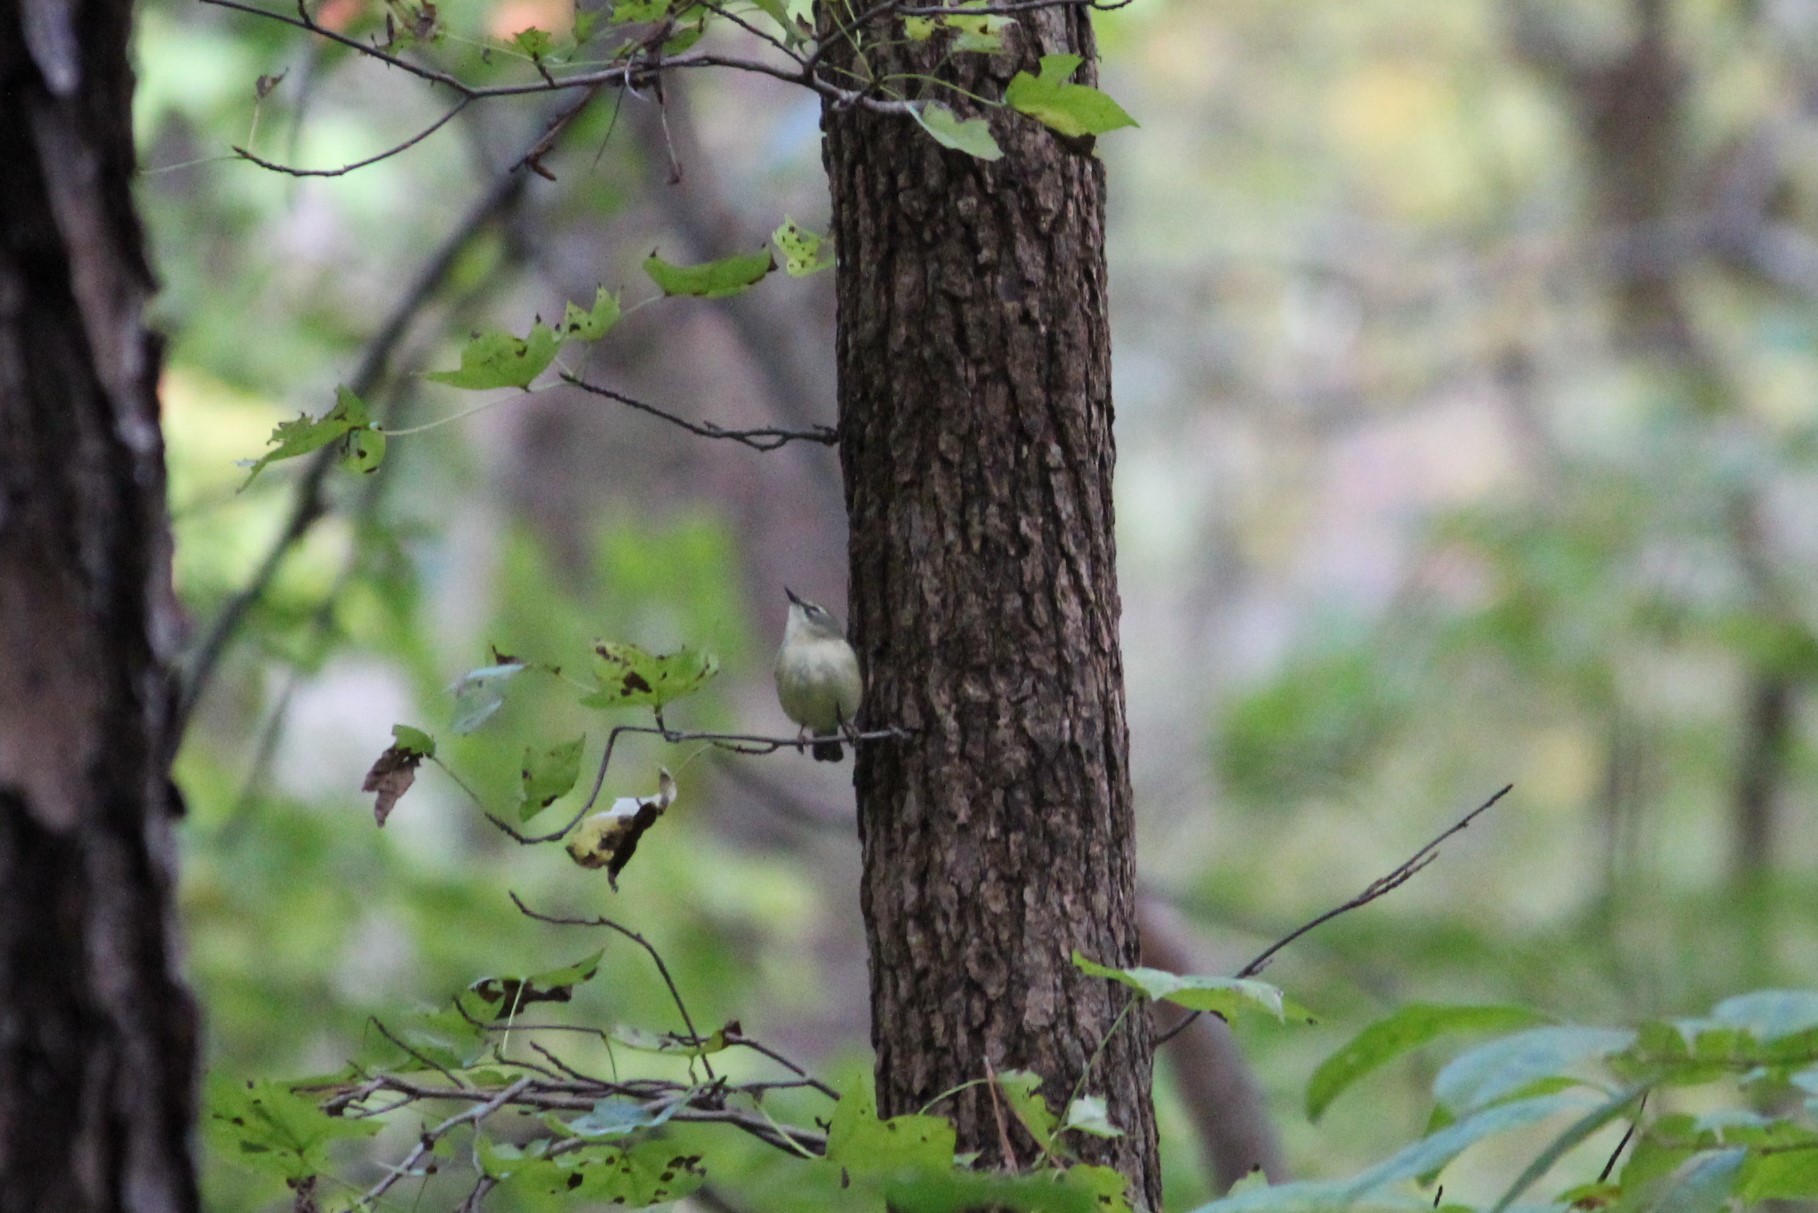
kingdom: Animalia
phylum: Chordata
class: Aves
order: Passeriformes
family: Parulidae
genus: Setophaga
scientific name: Setophaga caerulescens
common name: Black-throated blue warbler
